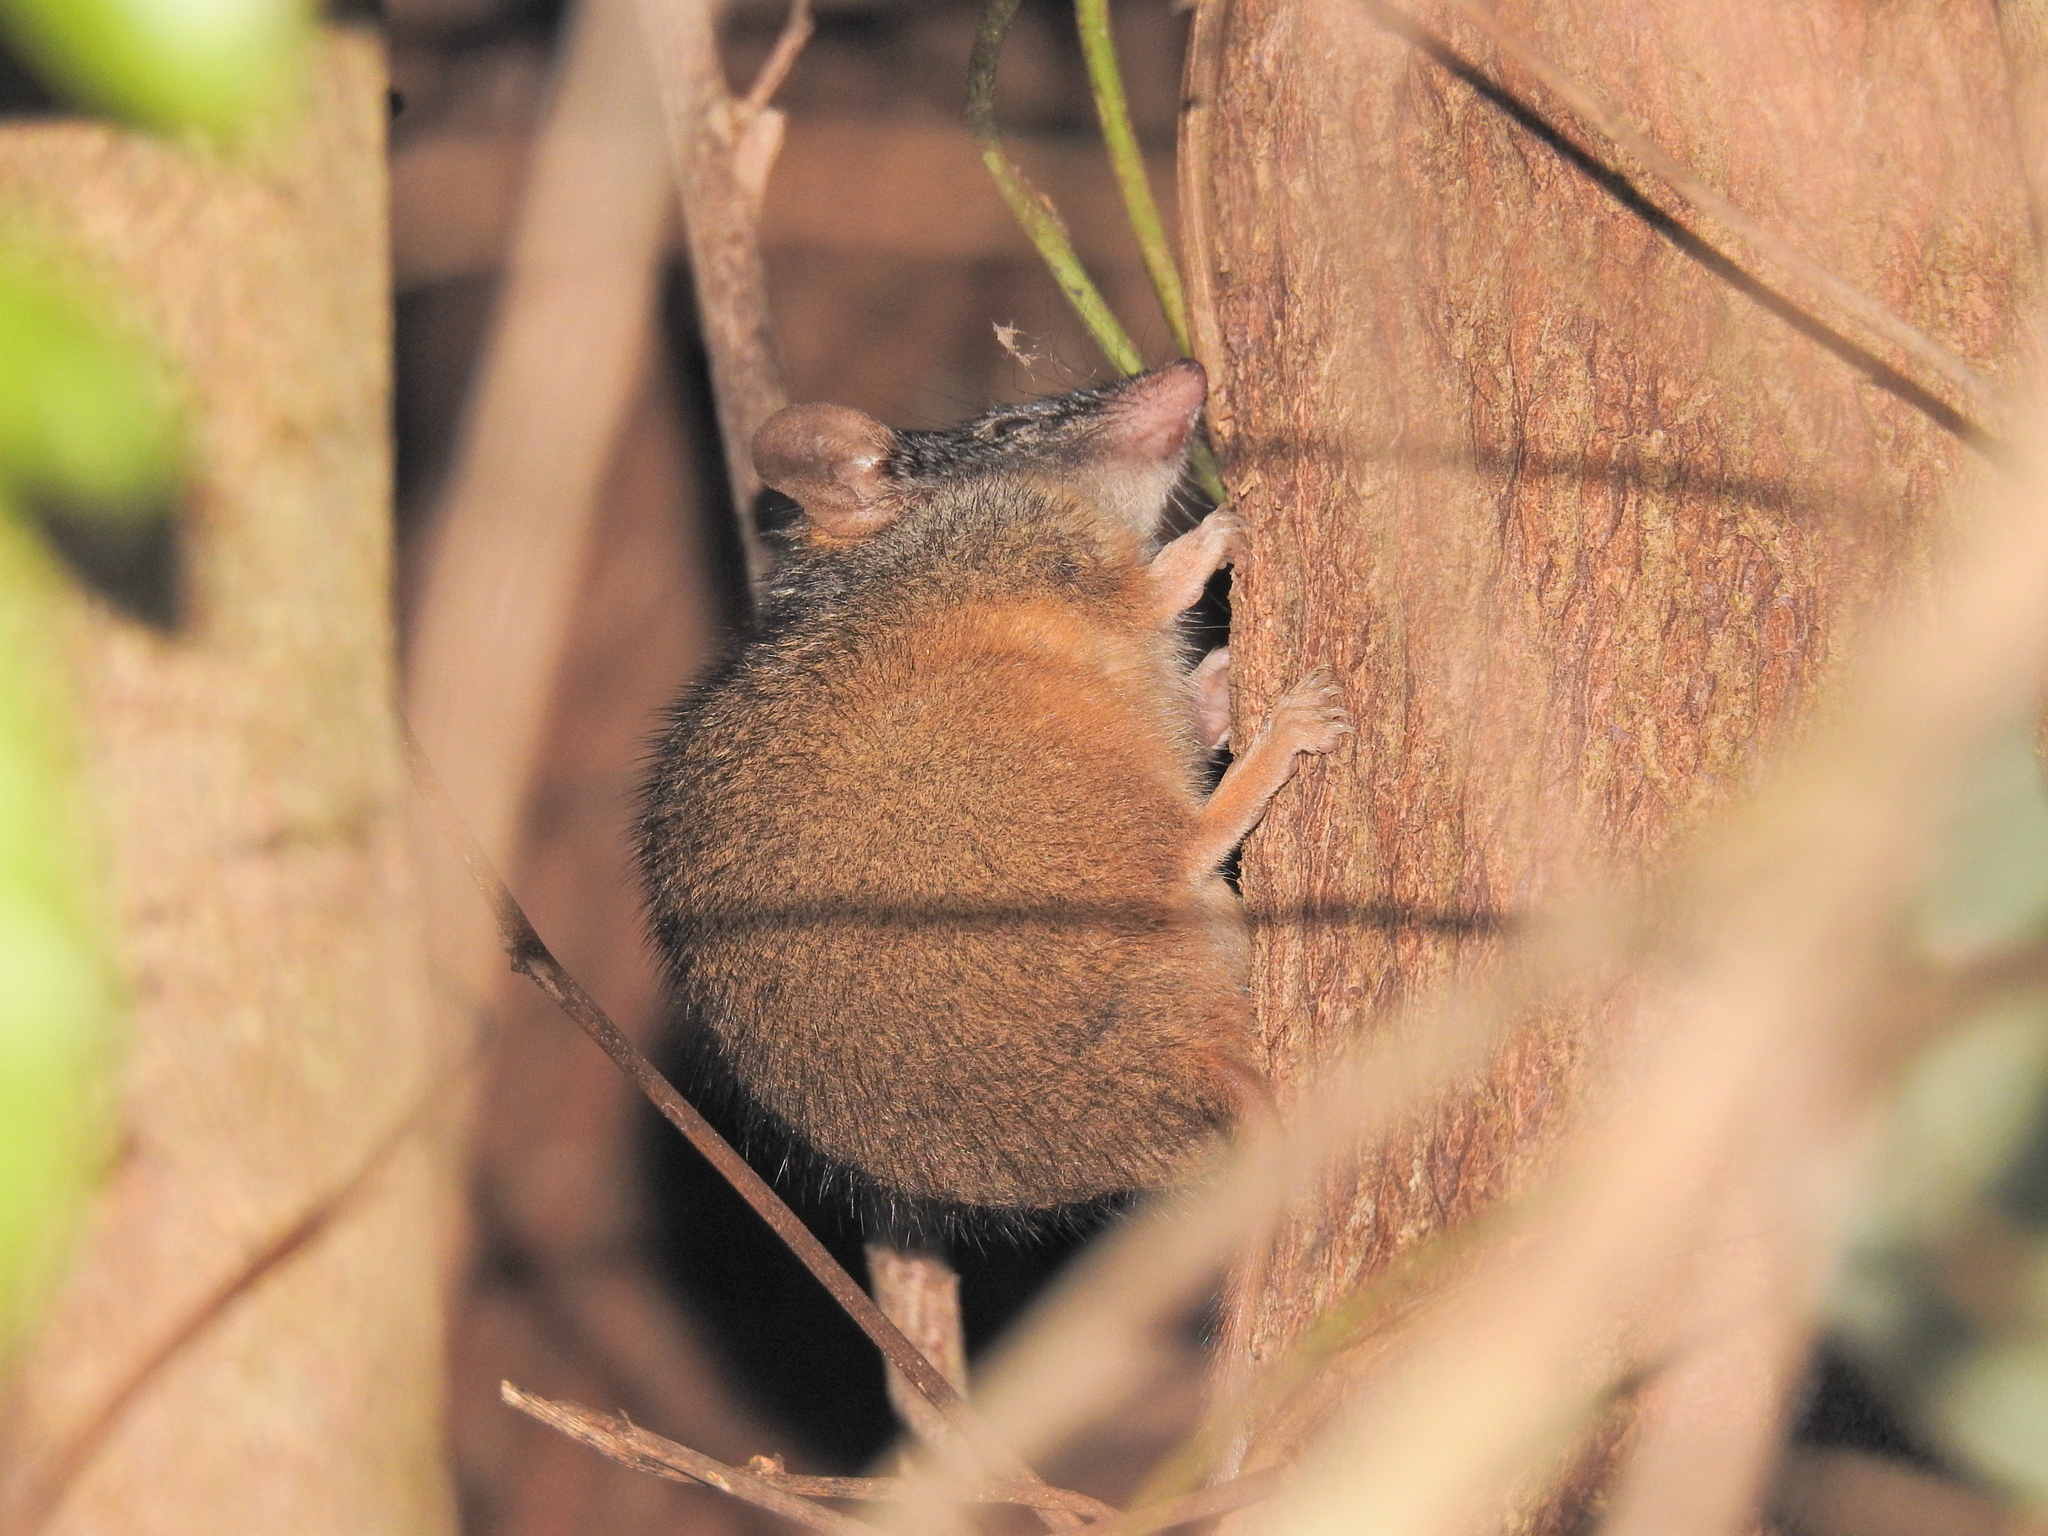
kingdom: Animalia
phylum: Chordata
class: Mammalia
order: Dasyuromorphia
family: Dasyuridae
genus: Antechinus
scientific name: Antechinus flavipes
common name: Yellow-footed antechinus
